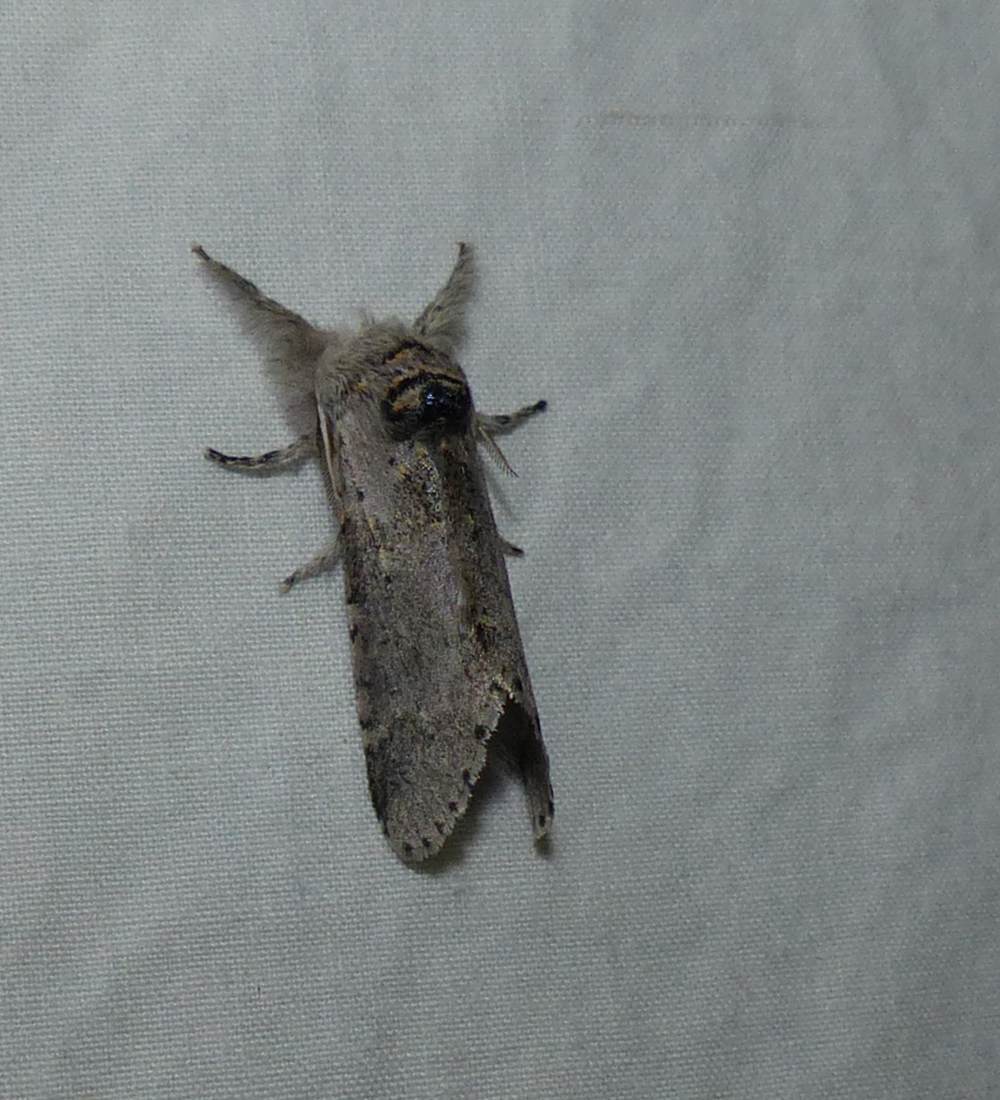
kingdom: Animalia
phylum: Arthropoda
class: Insecta
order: Lepidoptera
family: Notodontidae
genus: Furcula
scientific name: Furcula cinerea
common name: Gray furcula
